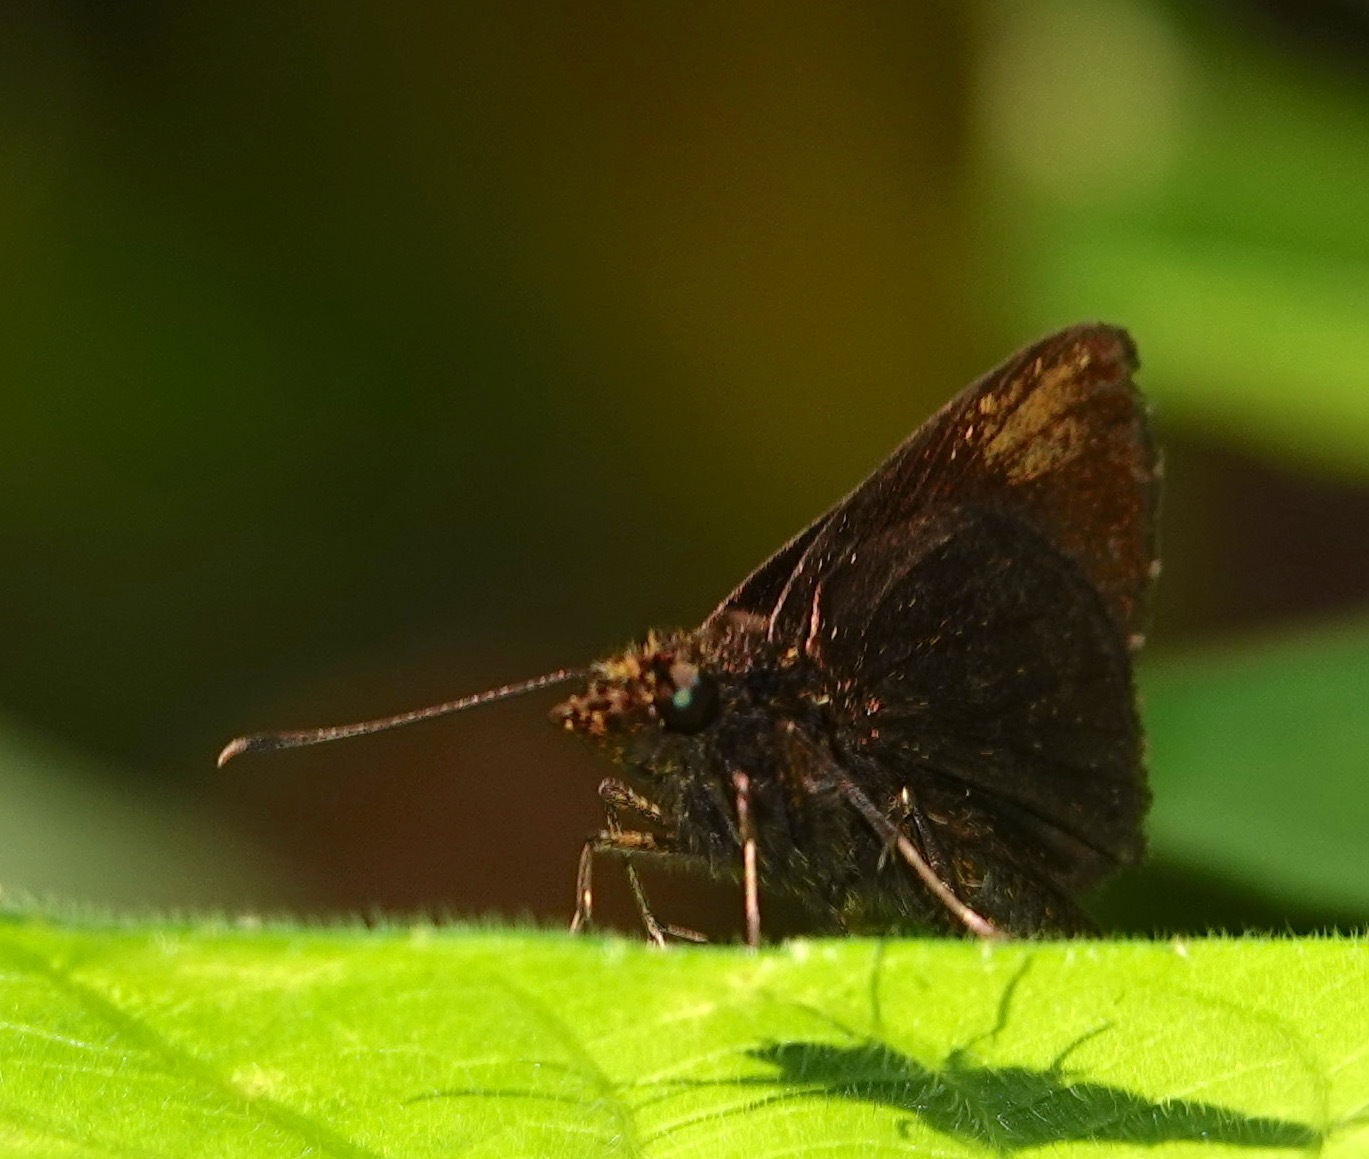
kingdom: Animalia
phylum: Arthropoda
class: Insecta
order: Lepidoptera
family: Hesperiidae
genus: Arnetta
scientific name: Arnetta verones
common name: Sumatran bob
